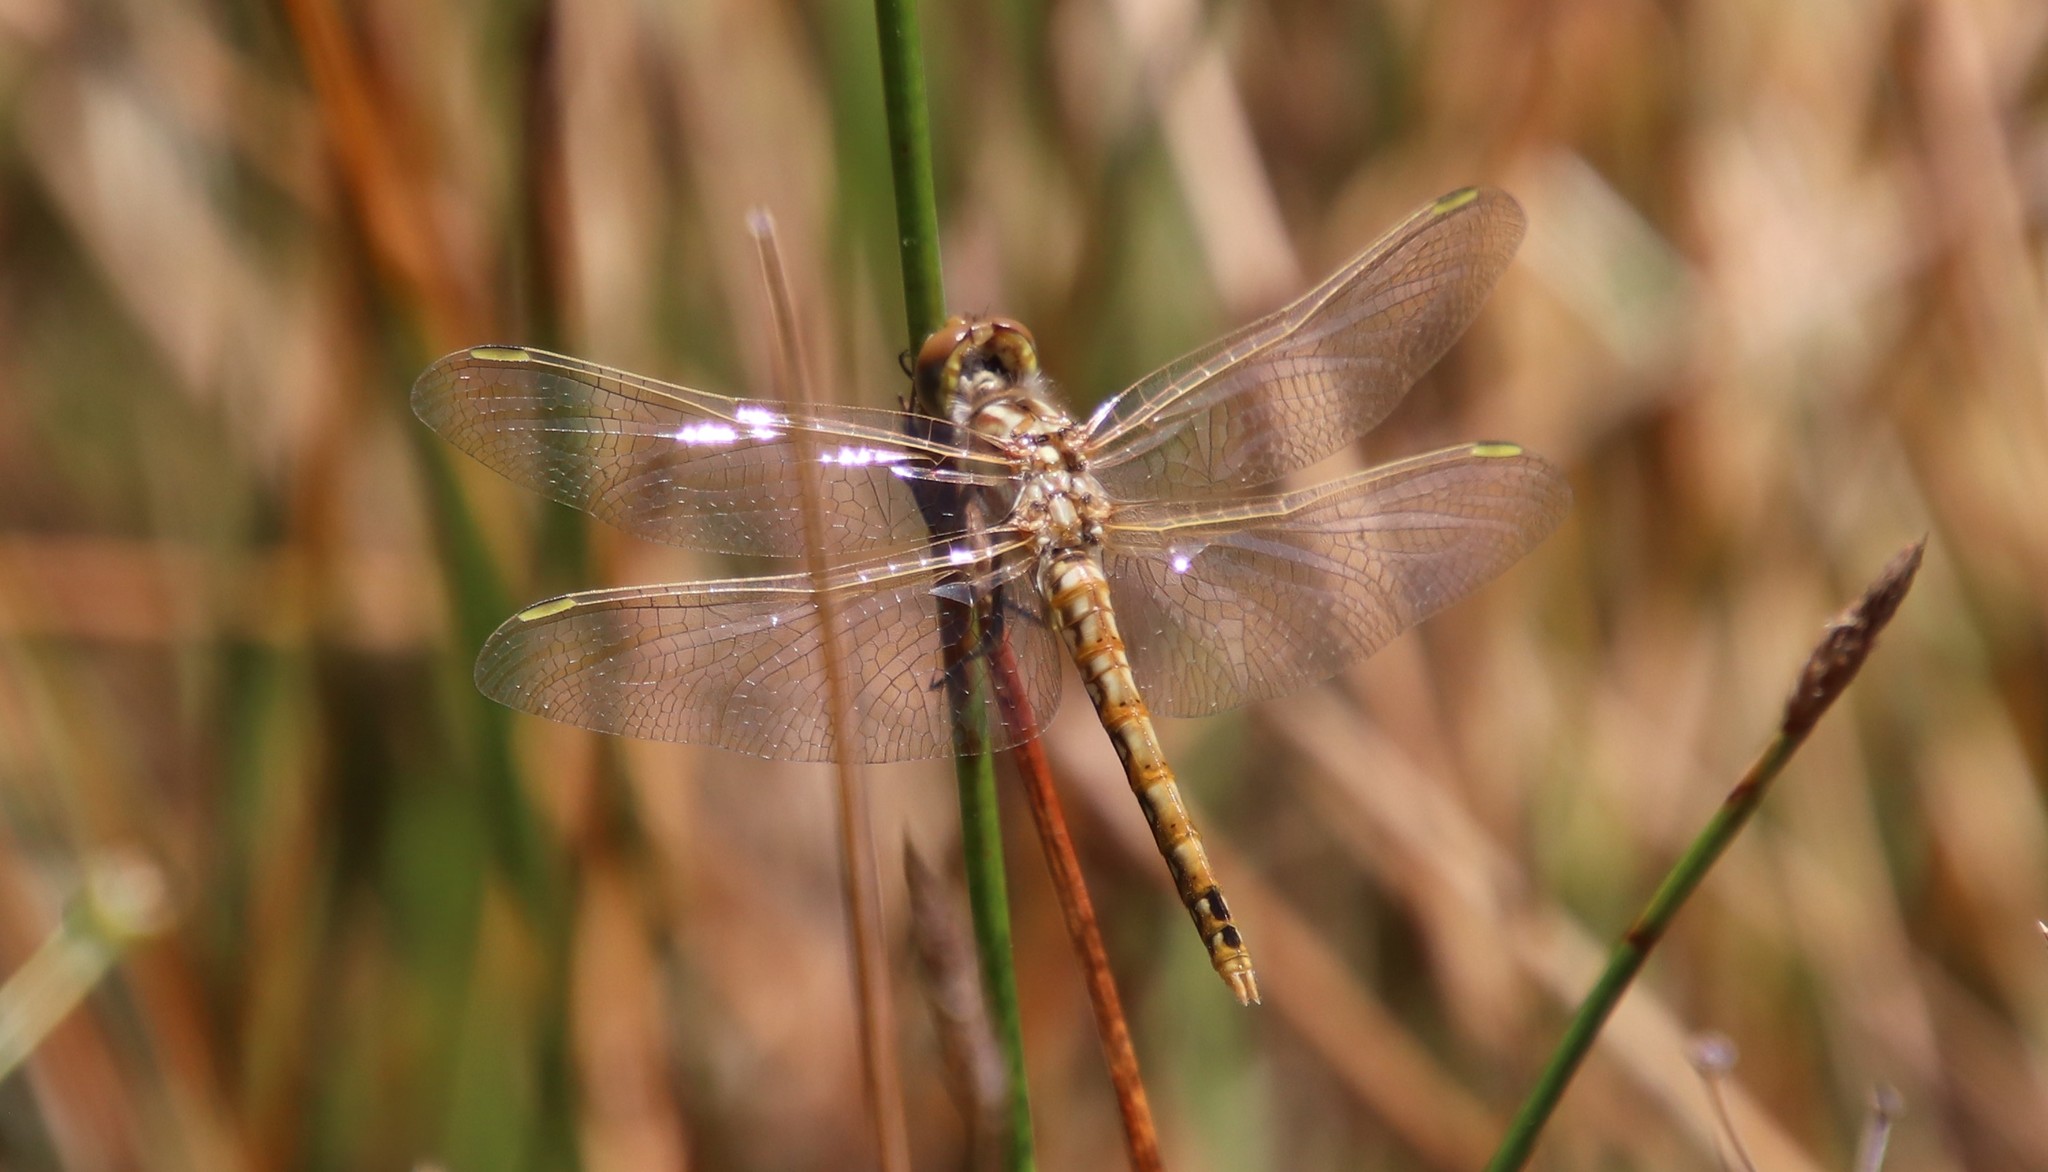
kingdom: Animalia
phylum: Arthropoda
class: Insecta
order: Odonata
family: Libellulidae
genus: Sympetrum
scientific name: Sympetrum corruptum
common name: Variegated meadowhawk
